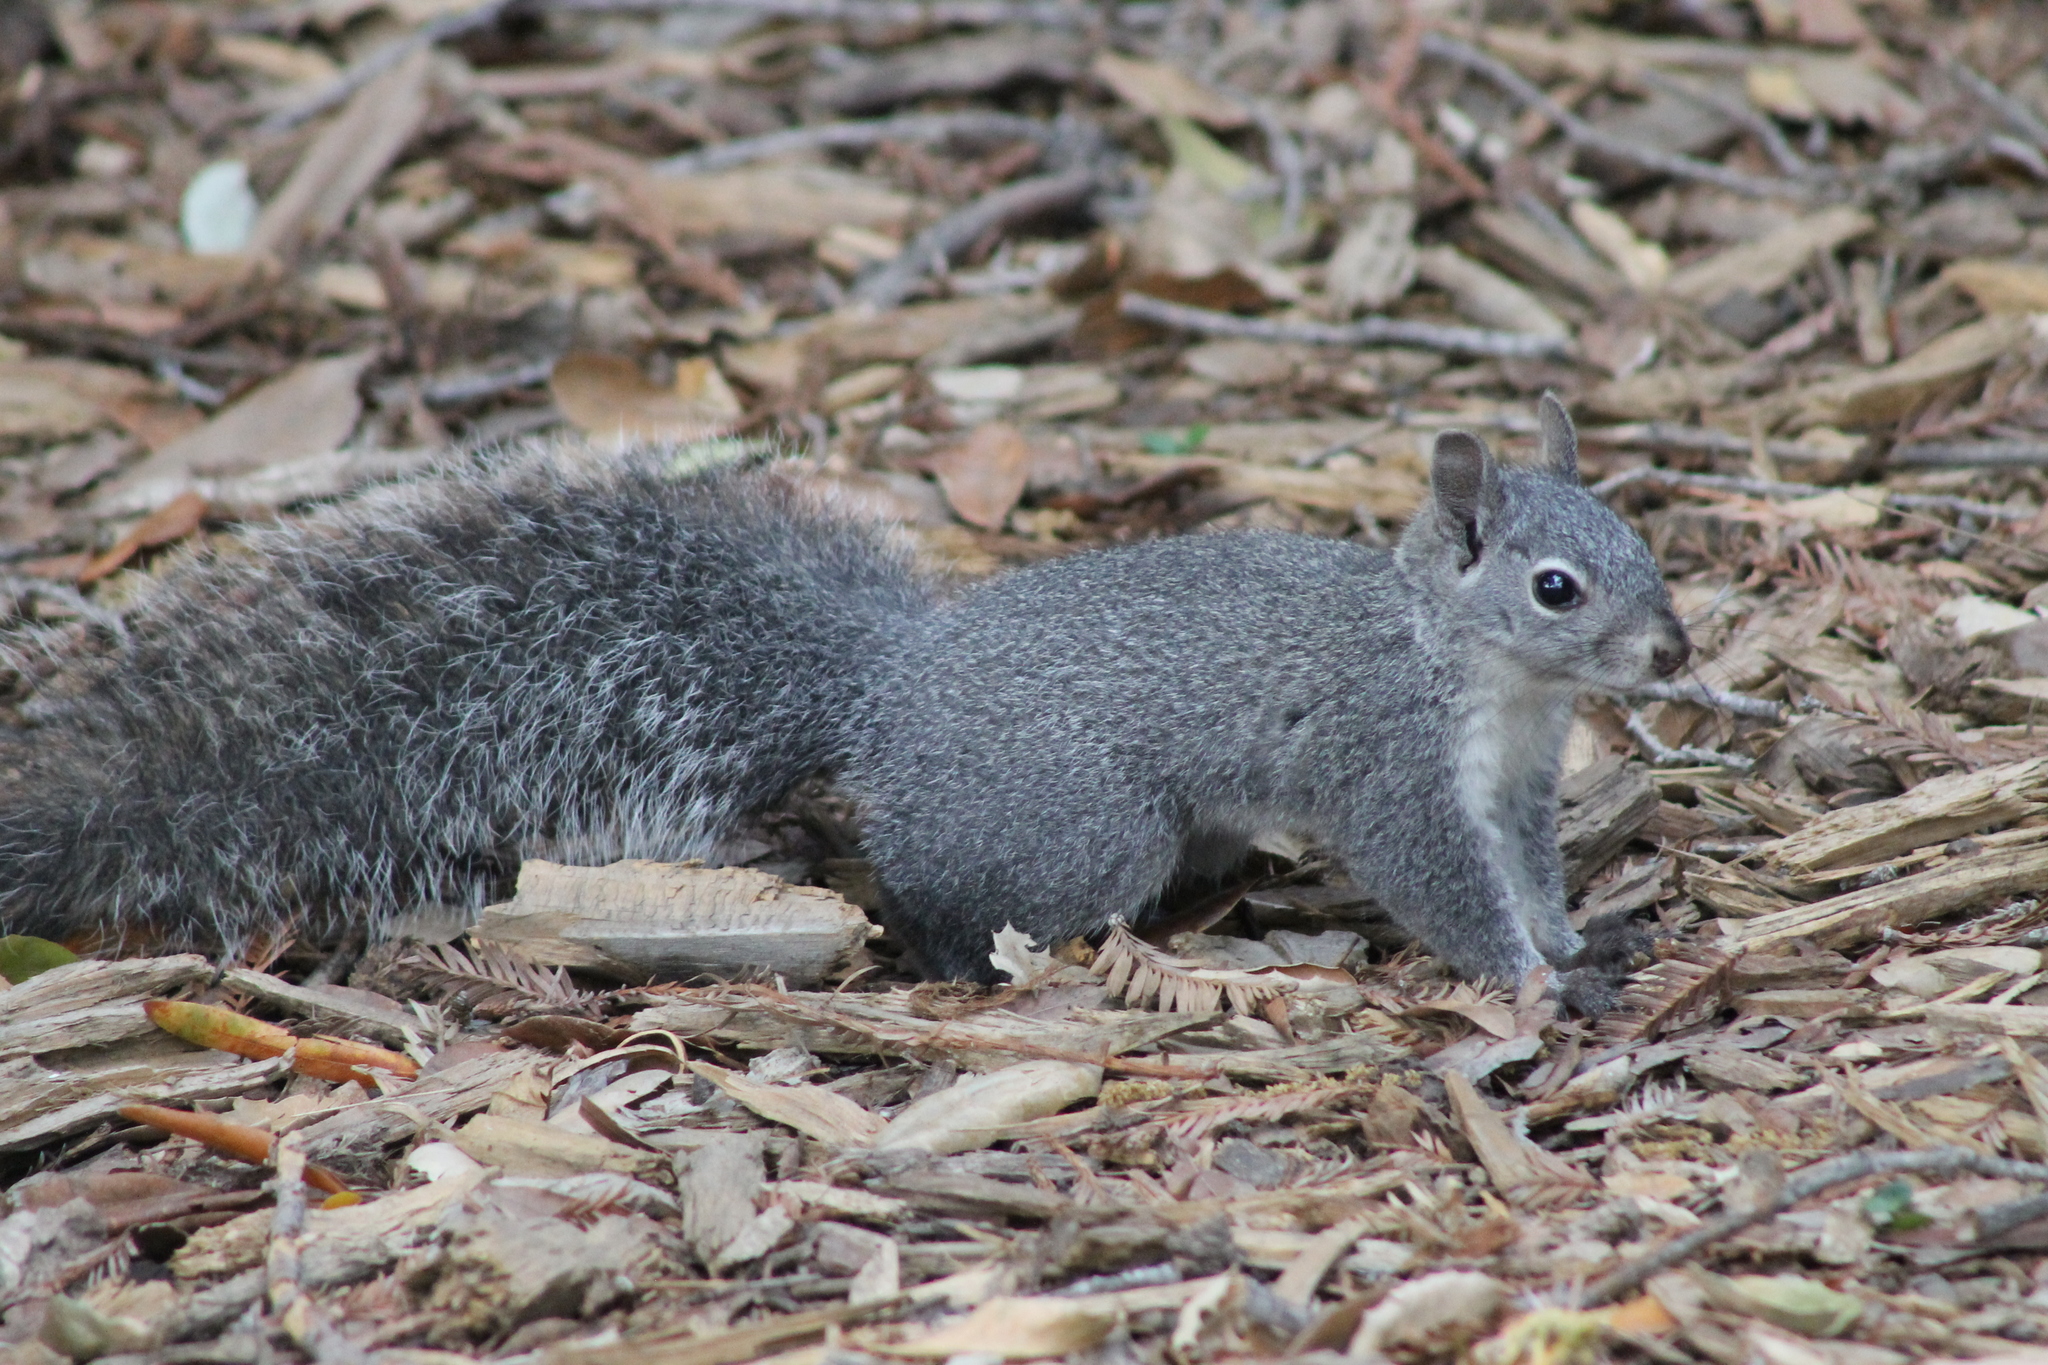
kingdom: Animalia
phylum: Chordata
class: Mammalia
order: Rodentia
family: Sciuridae
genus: Sciurus
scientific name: Sciurus griseus
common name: Western gray squirrel
